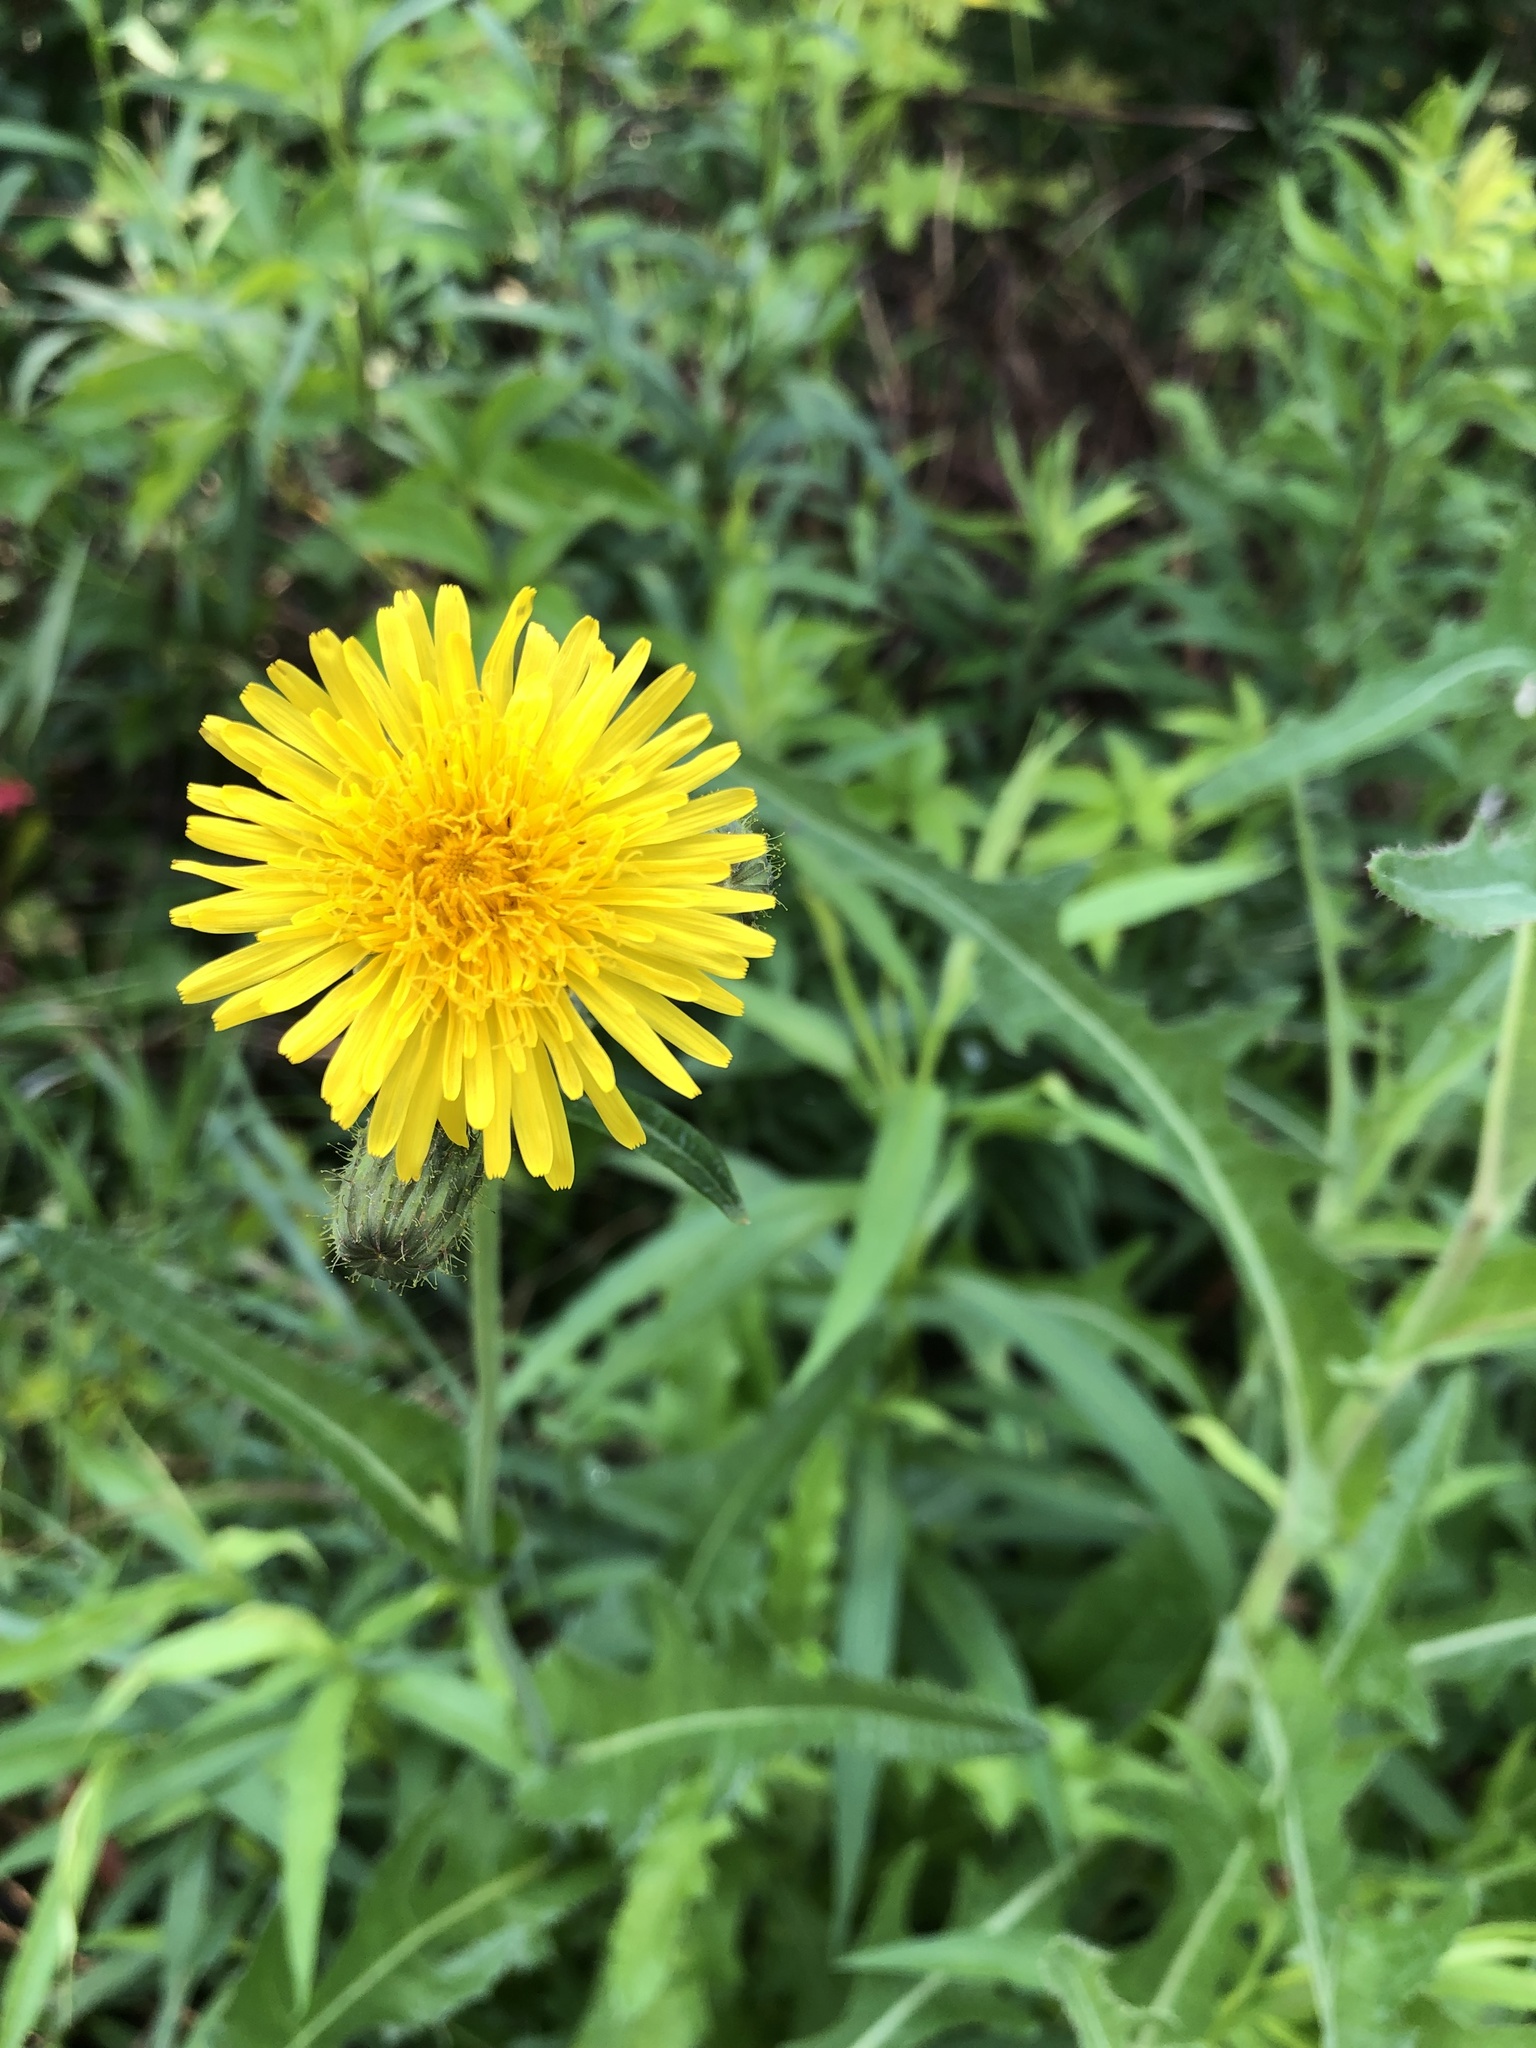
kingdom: Plantae
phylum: Tracheophyta
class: Magnoliopsida
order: Asterales
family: Asteraceae
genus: Sonchus
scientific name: Sonchus arvensis
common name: Perennial sow-thistle
